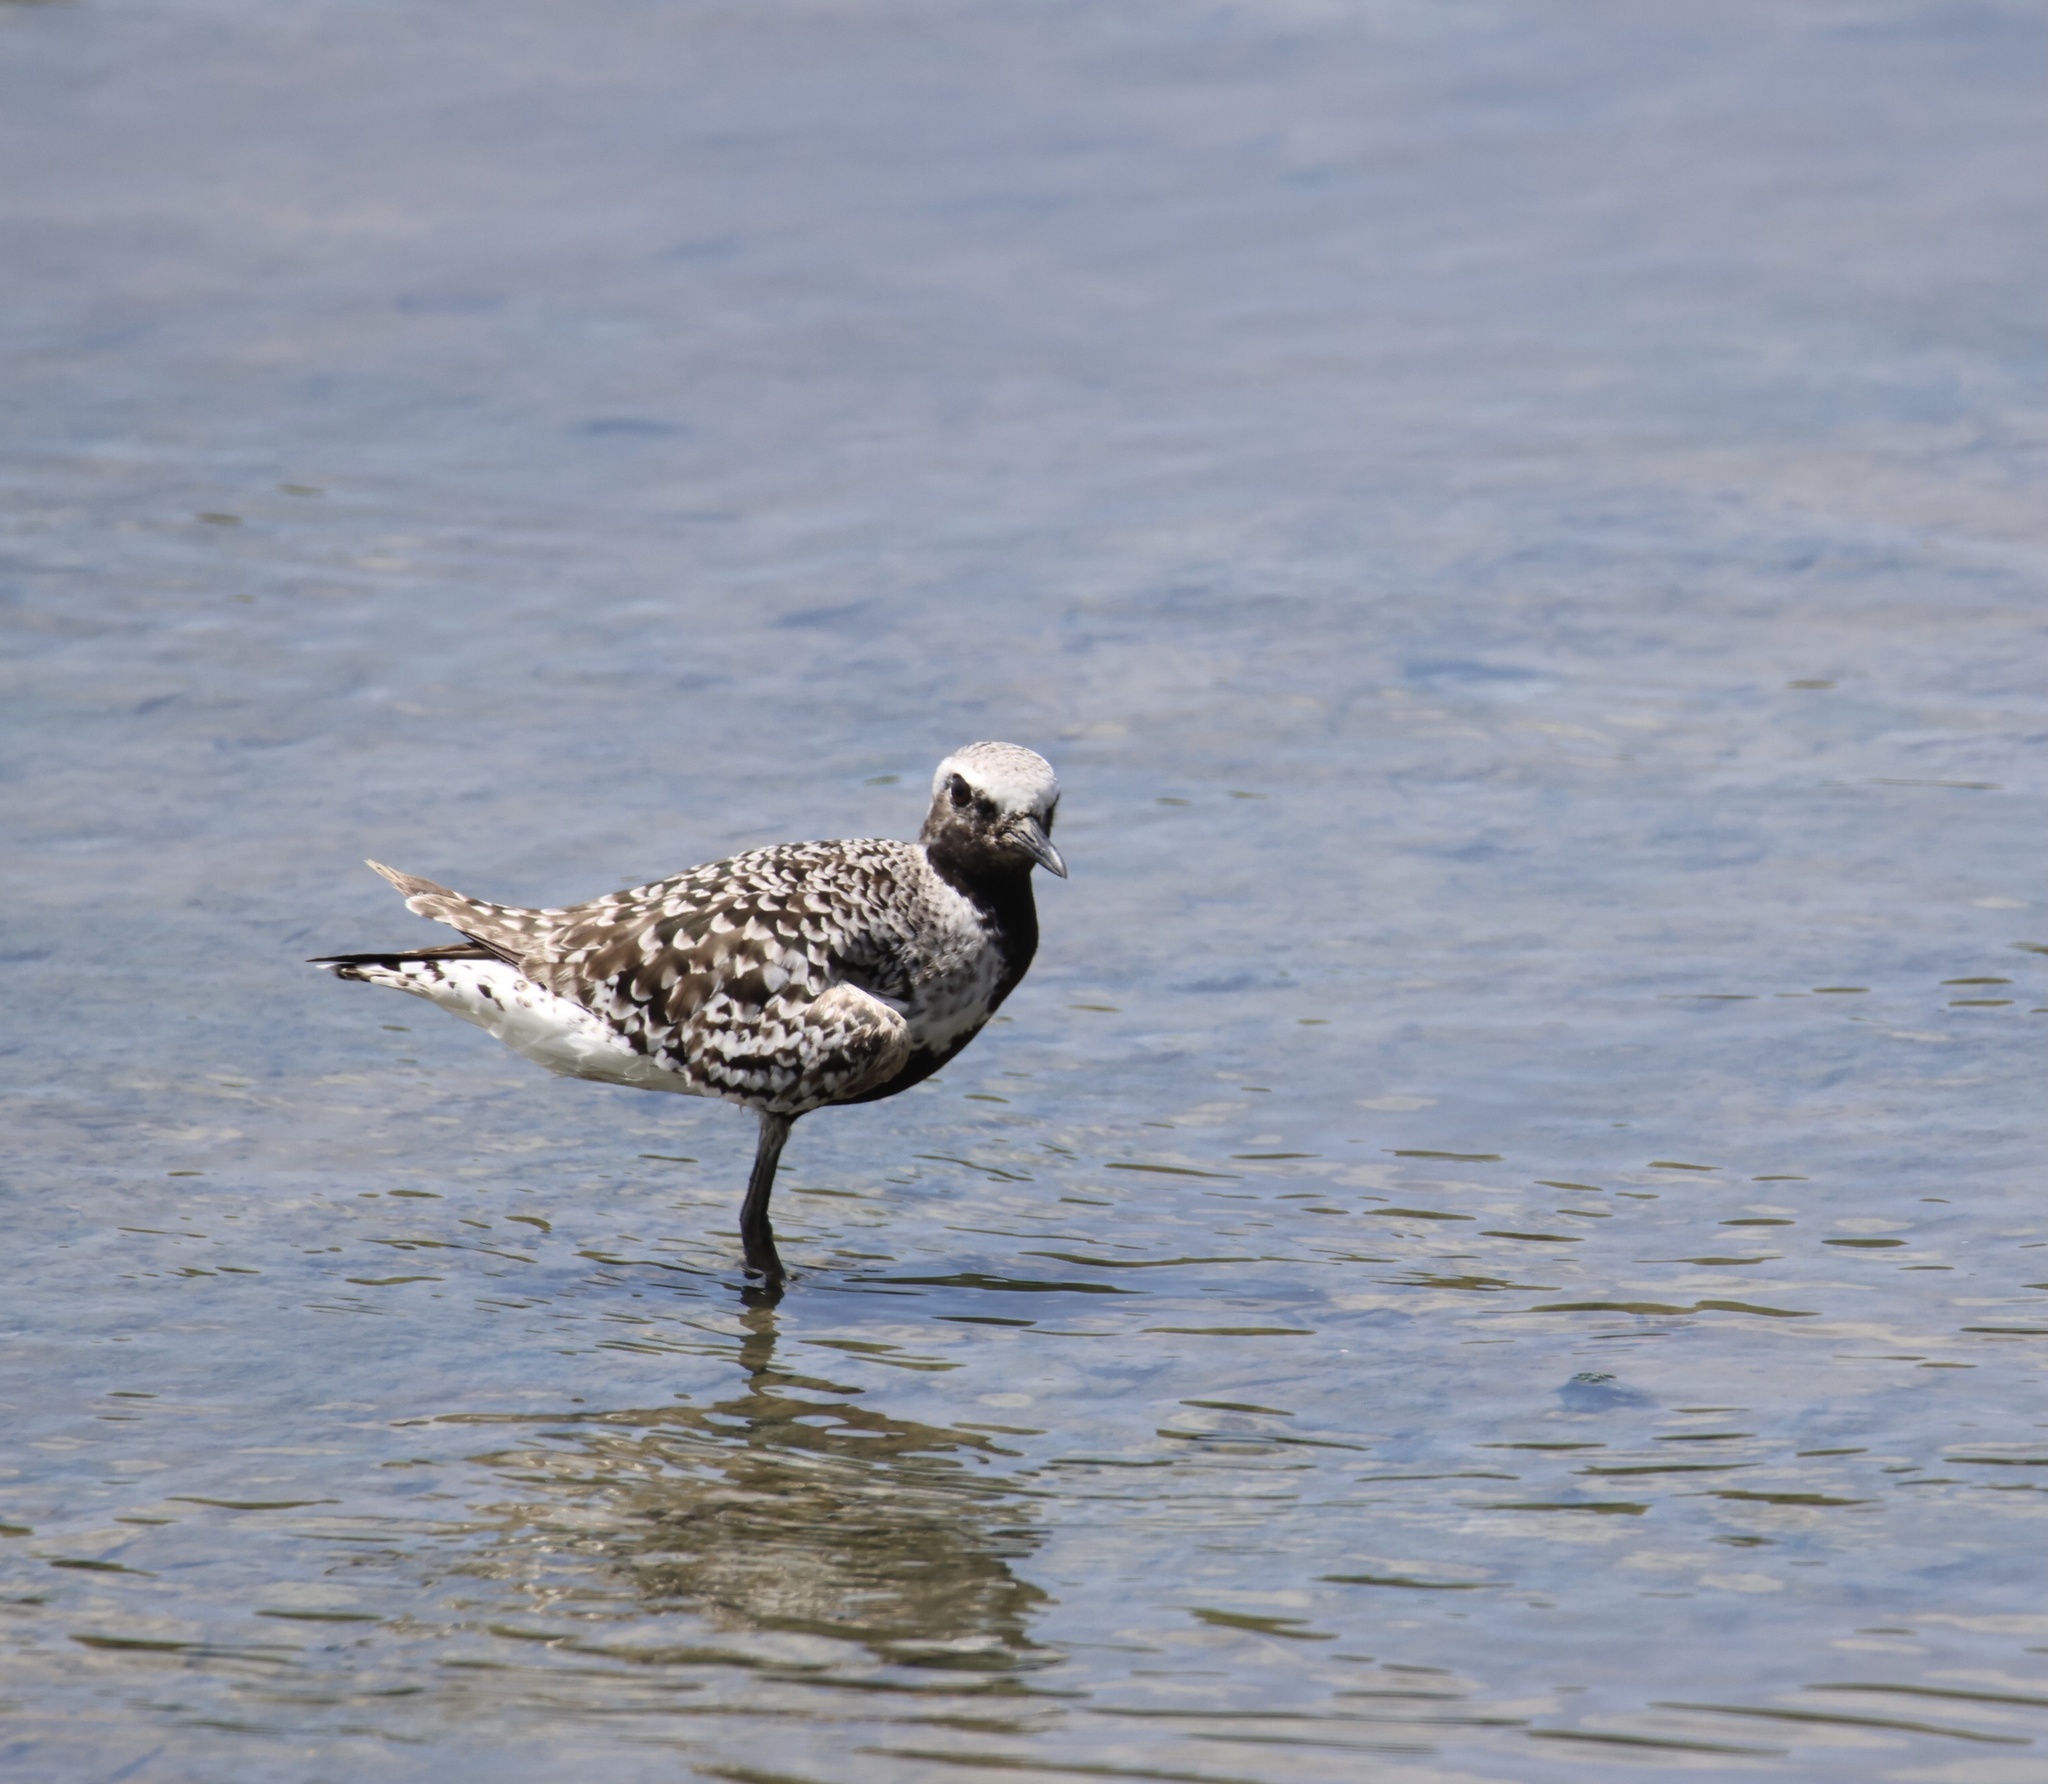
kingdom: Animalia
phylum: Chordata
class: Aves
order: Charadriiformes
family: Charadriidae
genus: Pluvialis
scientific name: Pluvialis squatarola
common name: Grey plover
